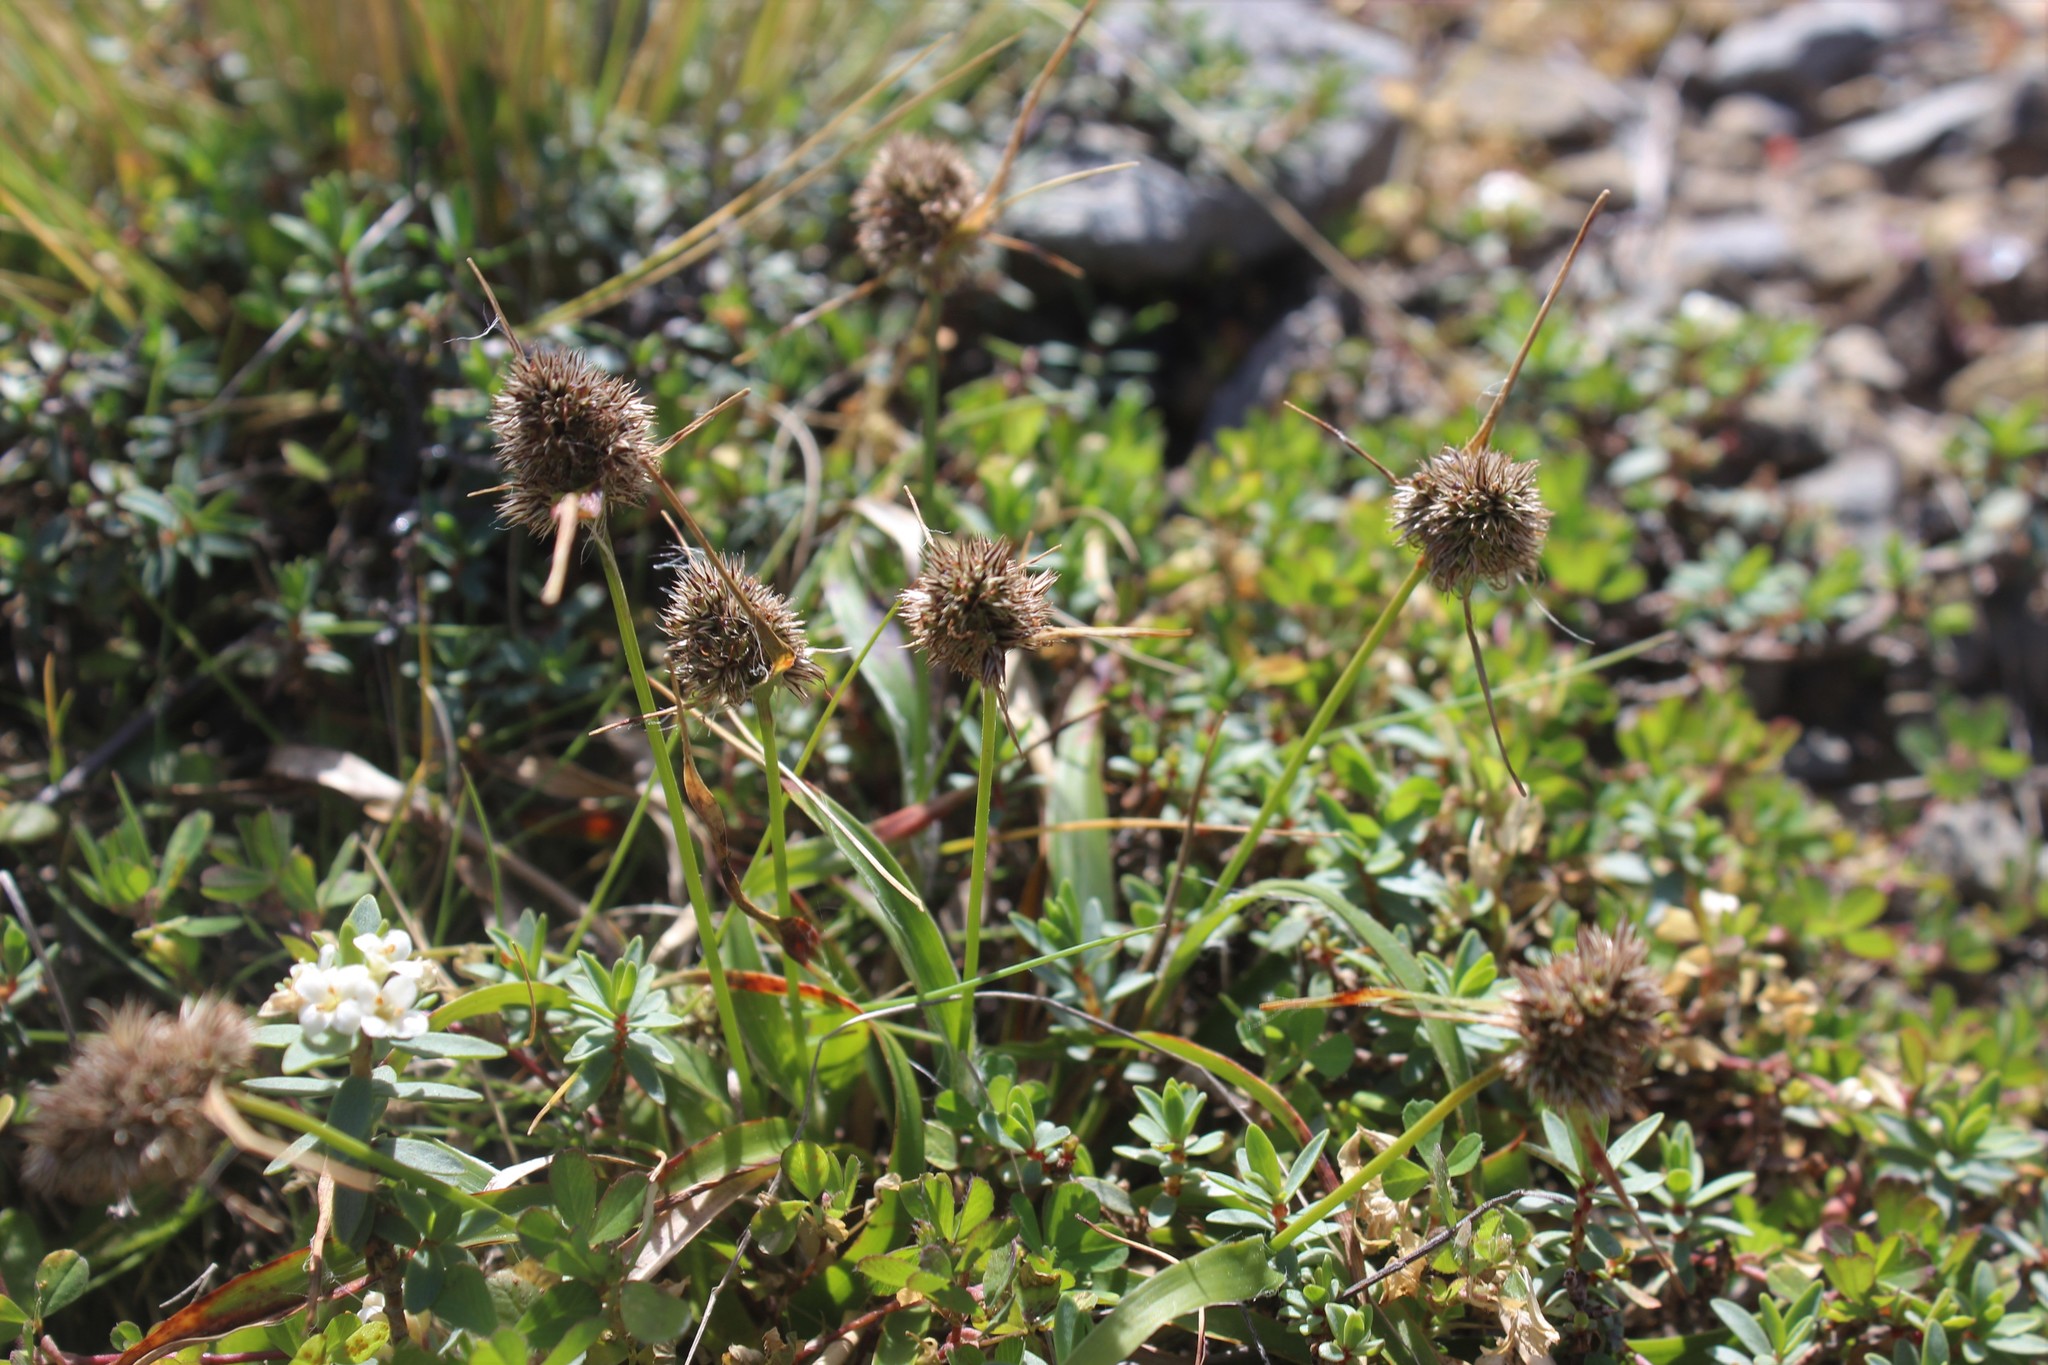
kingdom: Plantae
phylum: Tracheophyta
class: Liliopsida
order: Poales
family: Juncaceae
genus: Luzula
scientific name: Luzula banksiana
